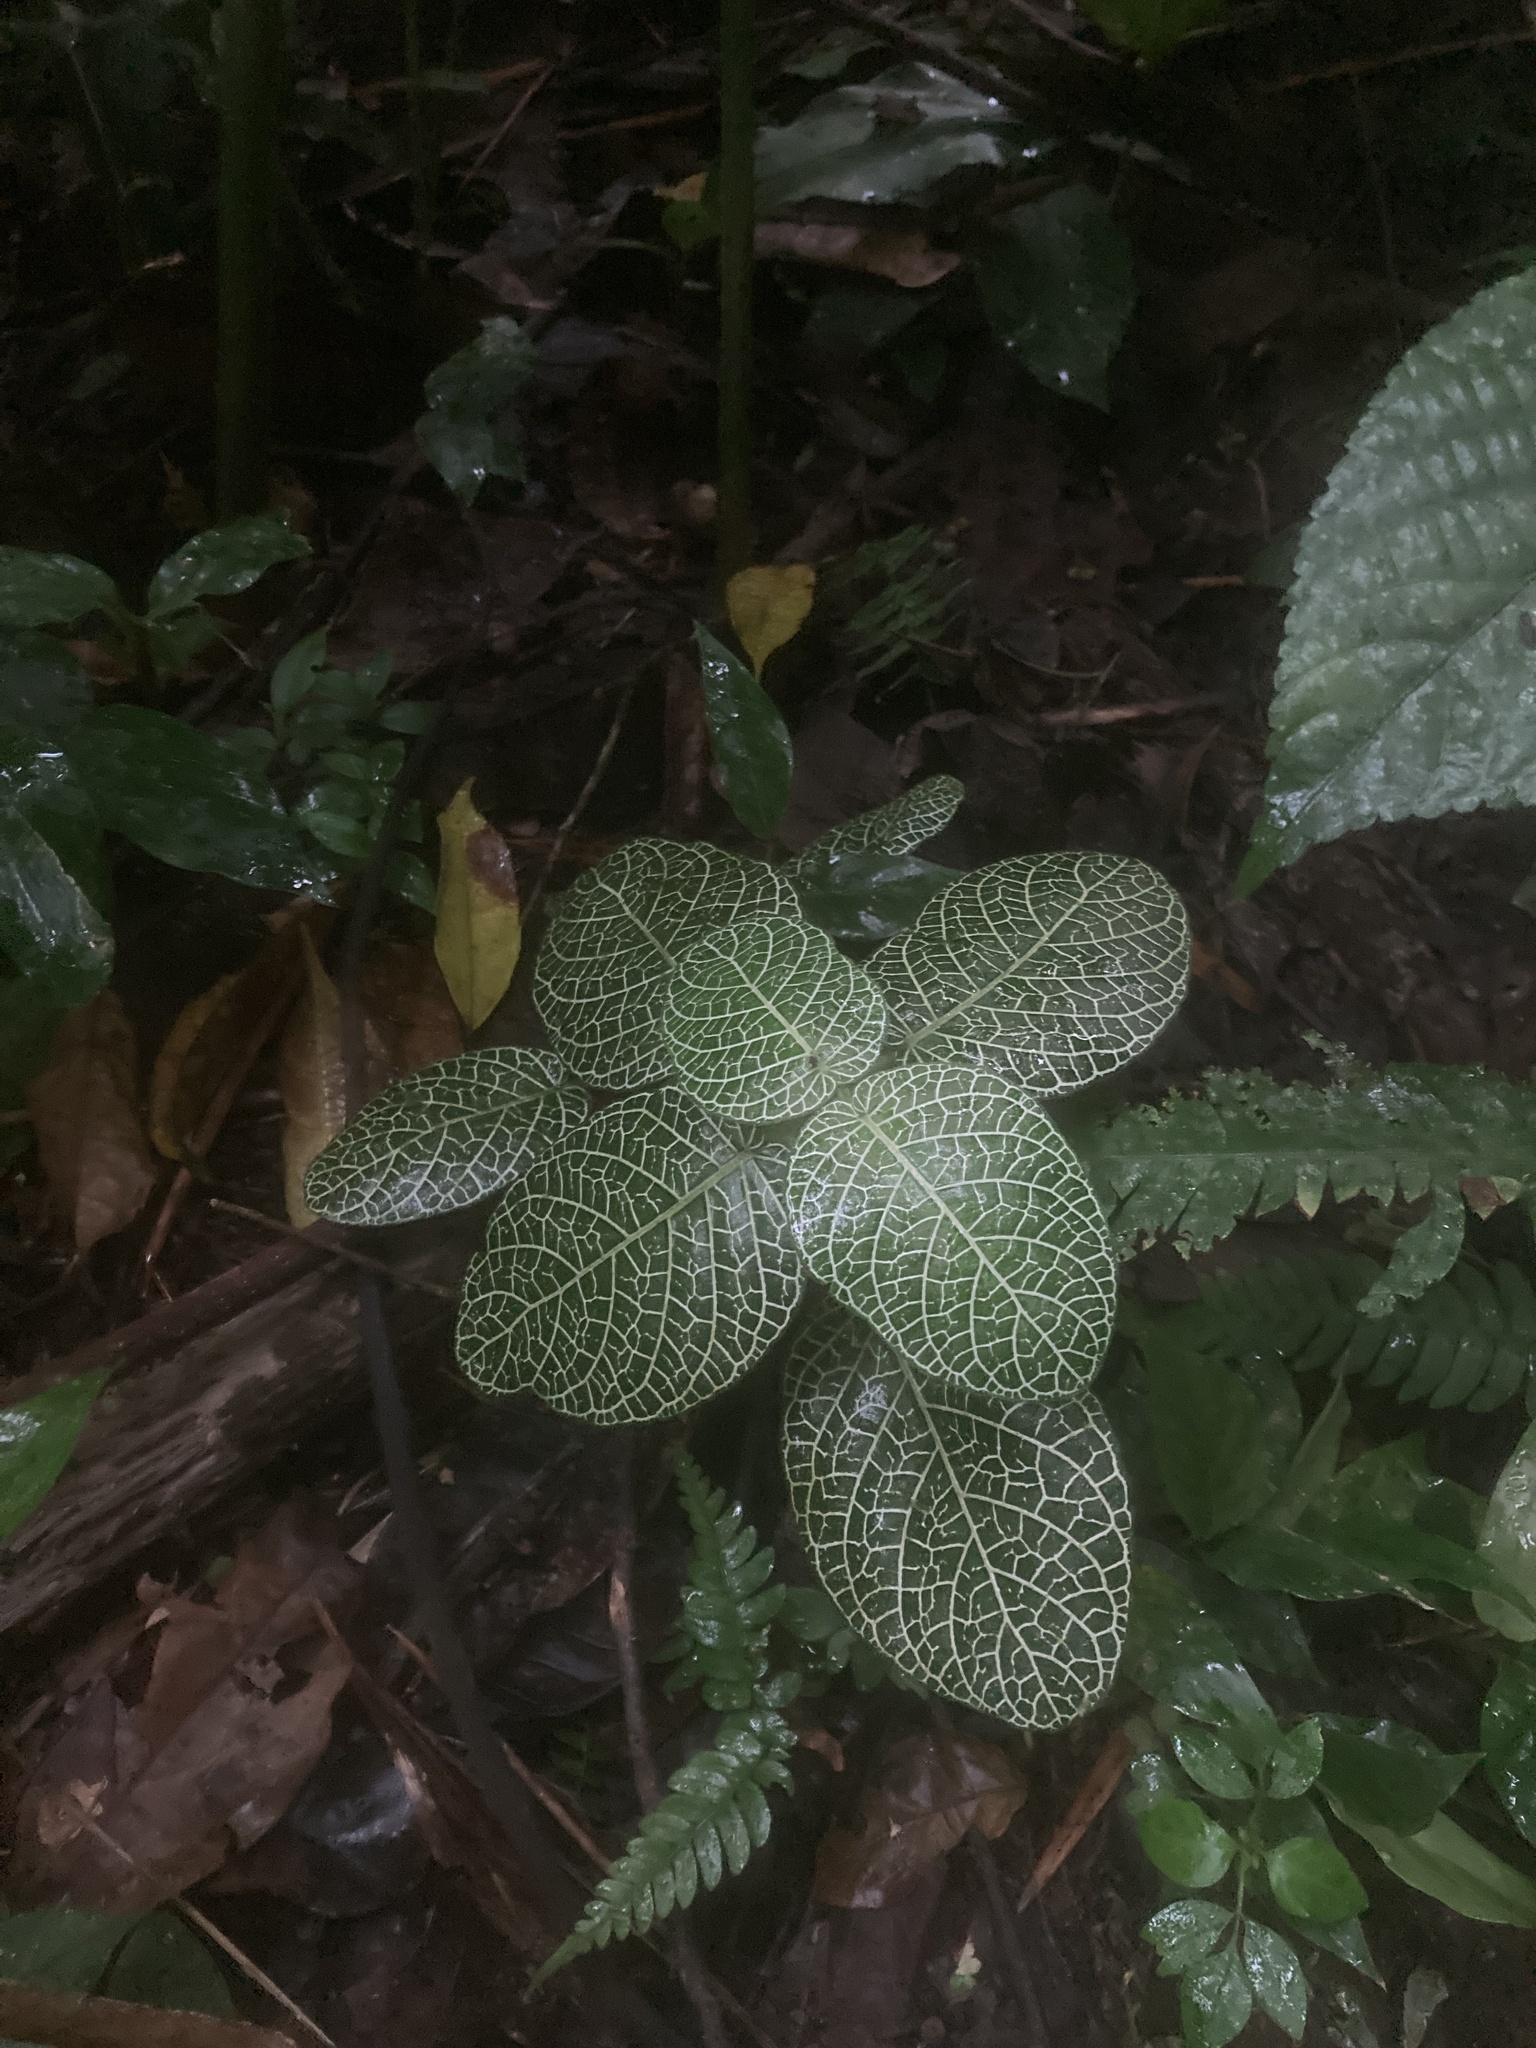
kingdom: Plantae
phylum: Tracheophyta
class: Magnoliopsida
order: Lamiales
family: Acanthaceae
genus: Fittonia
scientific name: Fittonia albivenis
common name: Mosaic-plant
